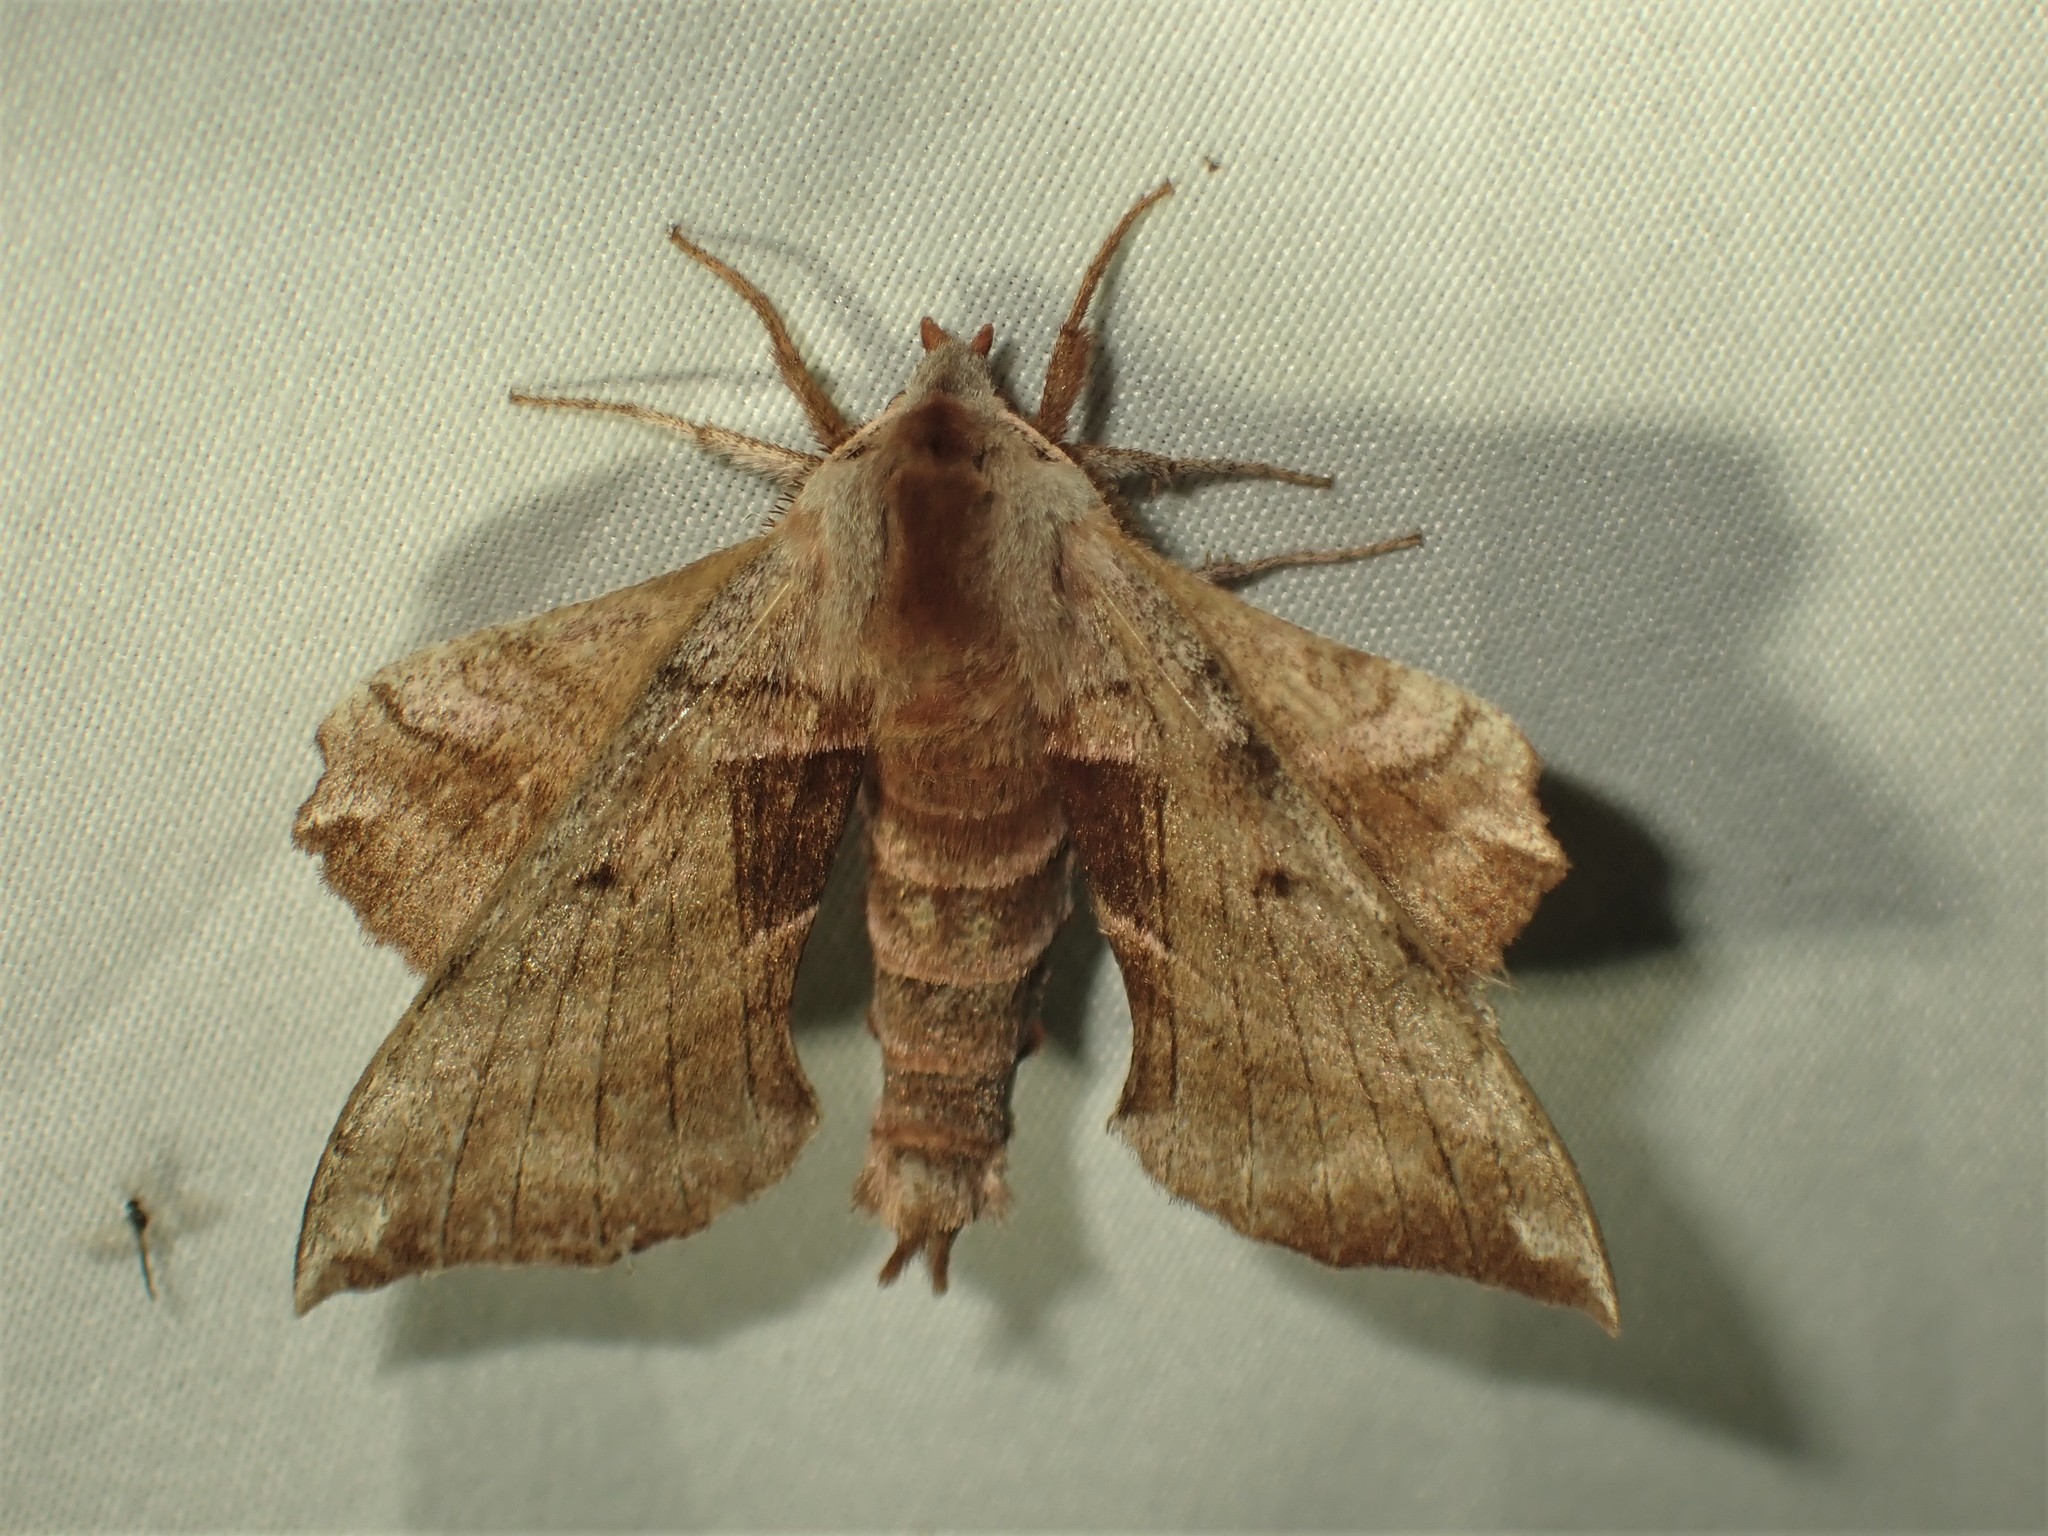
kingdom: Animalia
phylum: Arthropoda
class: Insecta
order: Lepidoptera
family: Sphingidae
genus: Amorpha
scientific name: Amorpha juglandis
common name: Walnut sphinx
